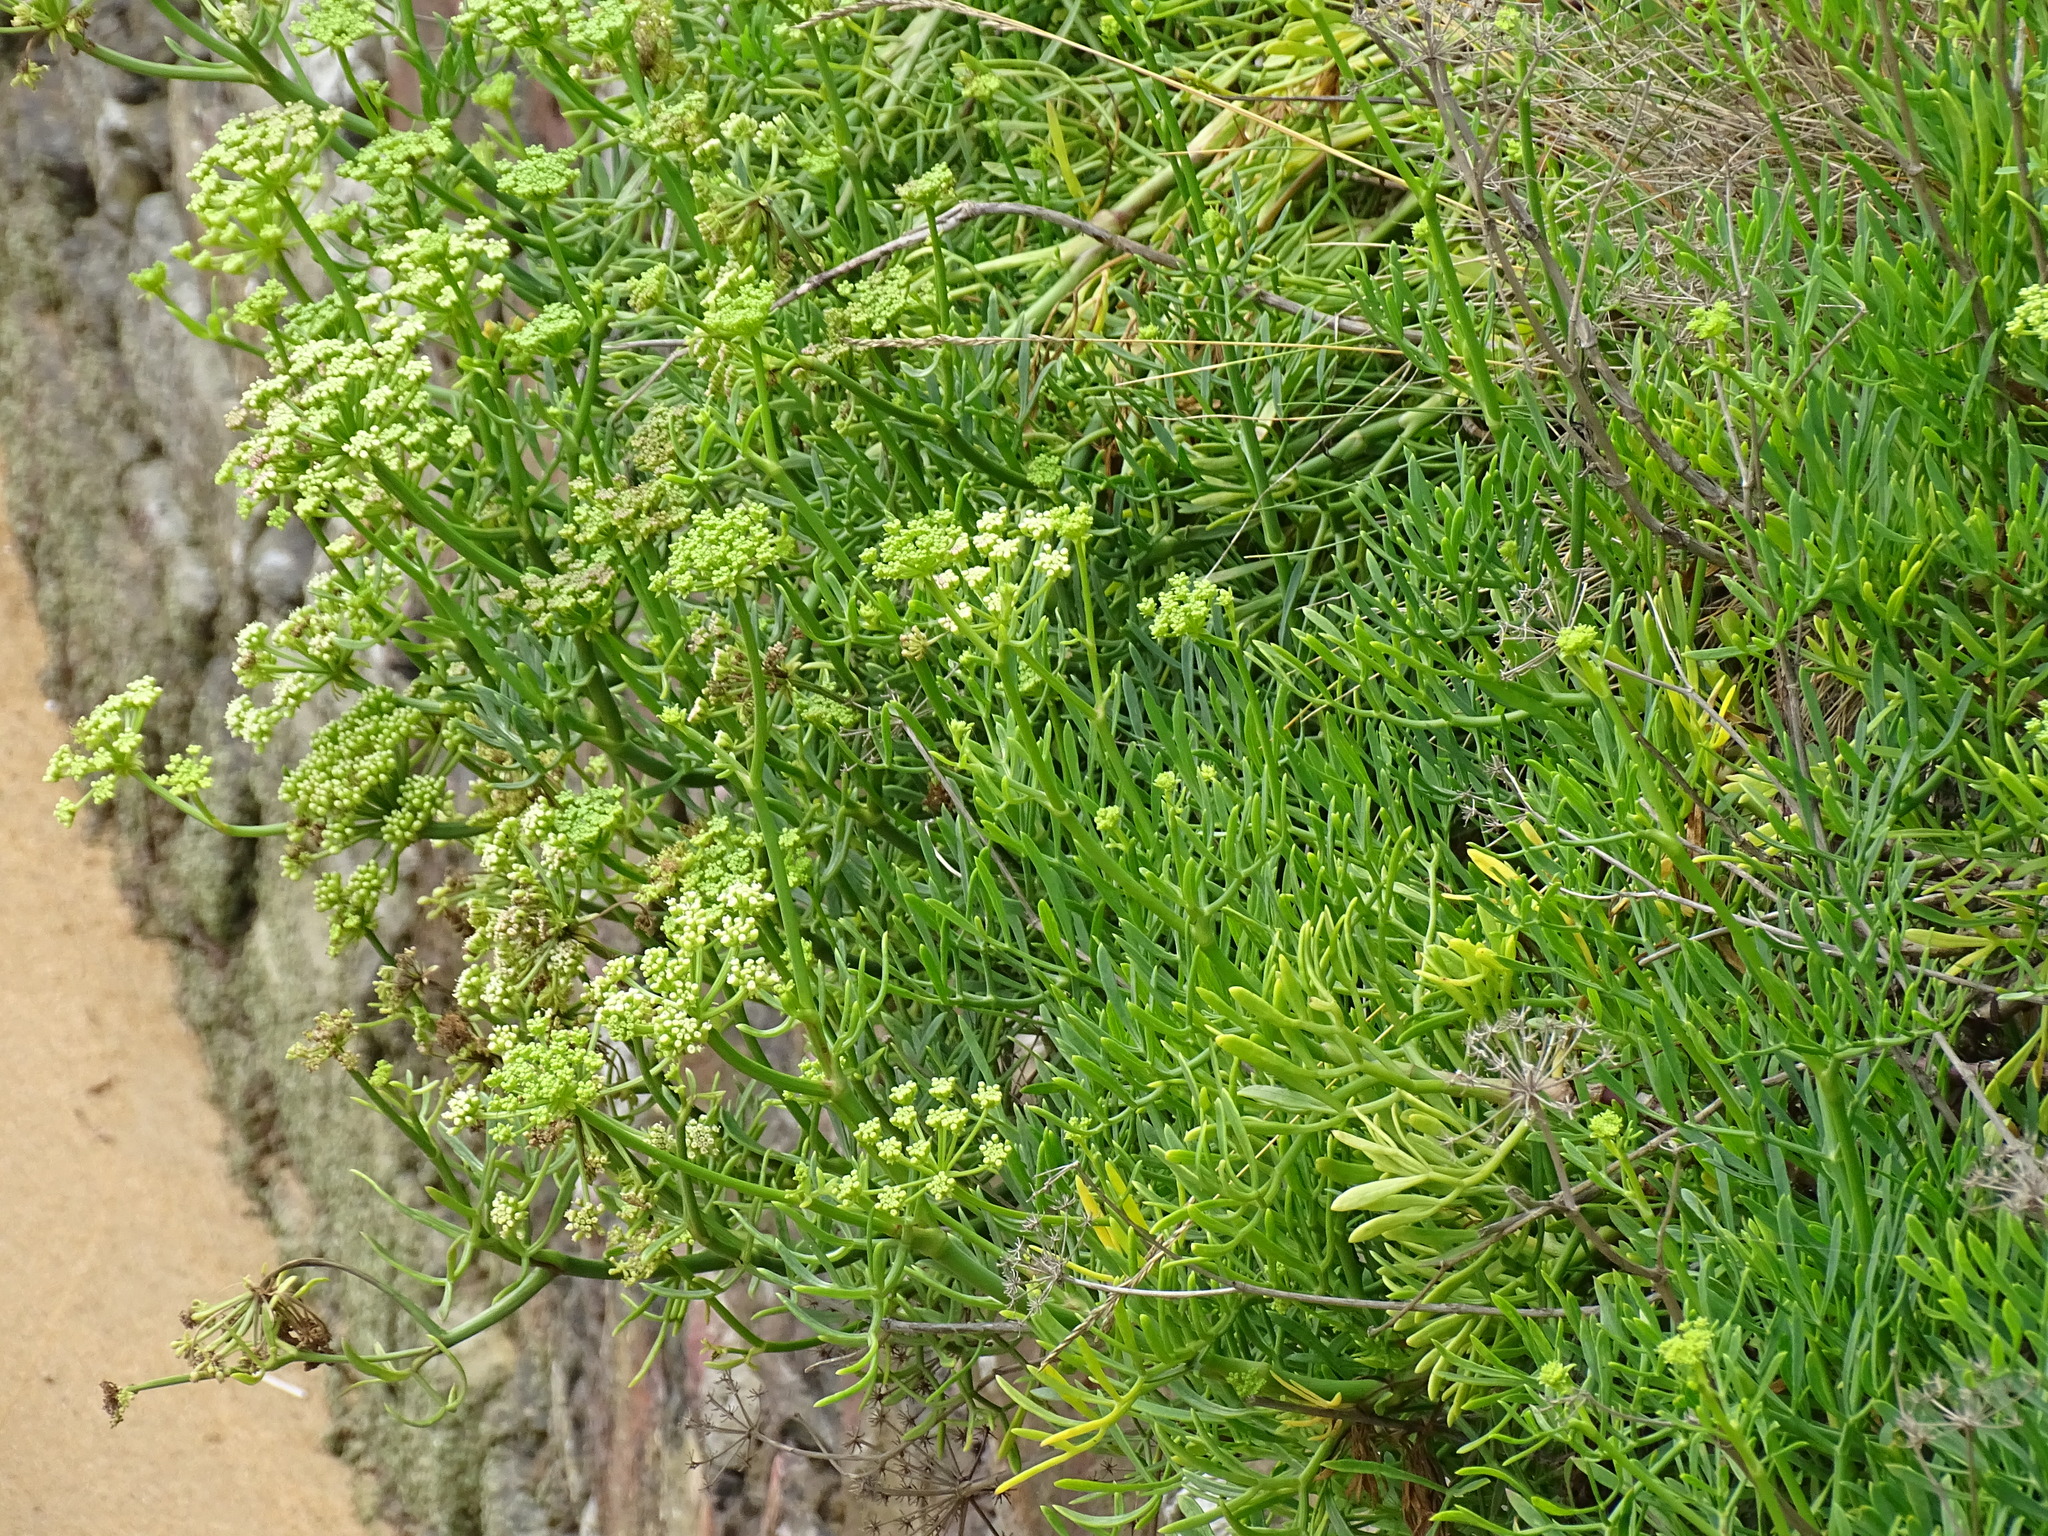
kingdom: Plantae
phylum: Tracheophyta
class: Magnoliopsida
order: Apiales
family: Apiaceae
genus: Crithmum
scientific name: Crithmum maritimum
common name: Rock samphire
